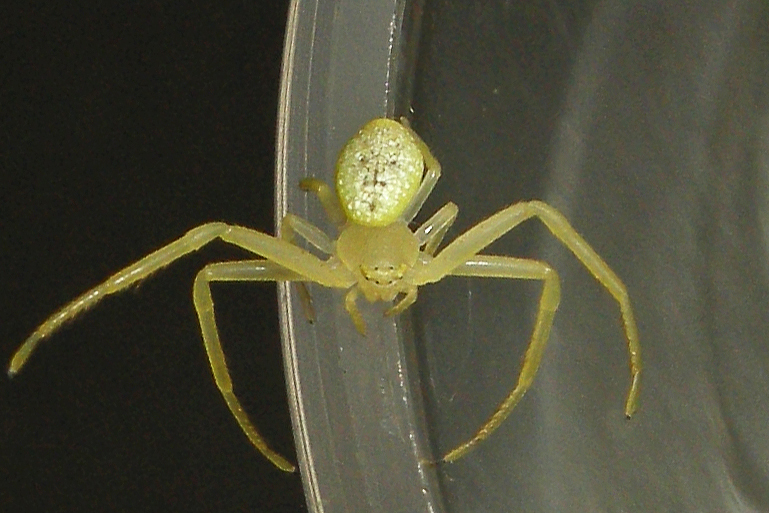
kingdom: Animalia
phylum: Arthropoda
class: Arachnida
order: Araneae
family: Thomisidae
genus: Misumessus
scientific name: Misumessus oblongus
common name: American green crab spider
